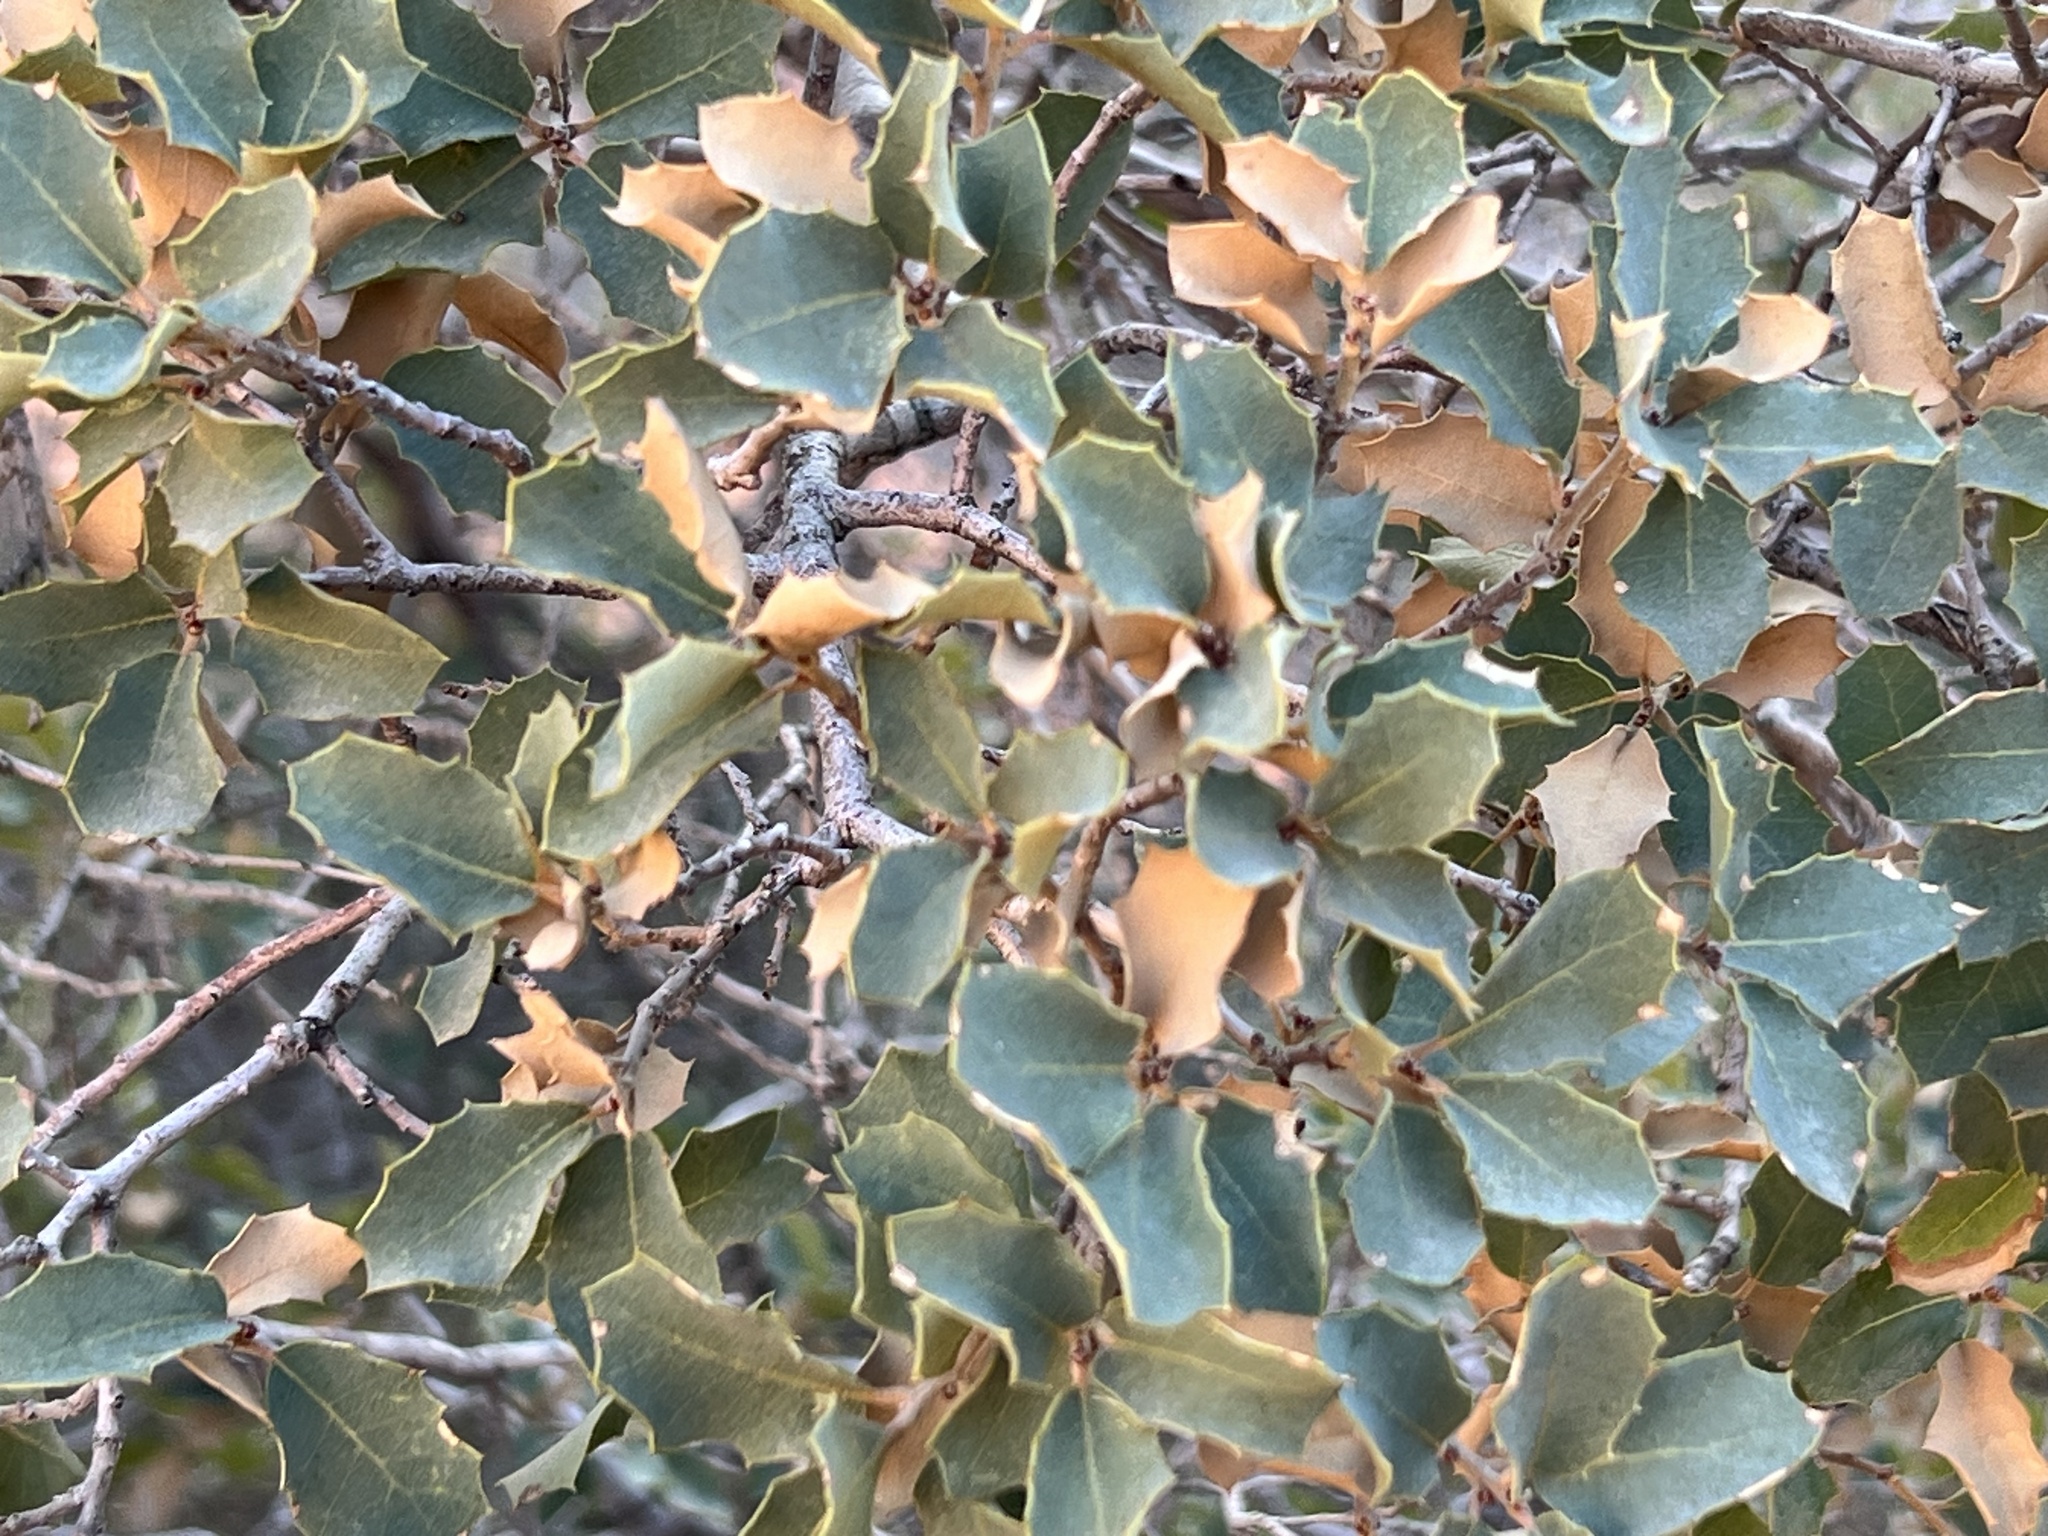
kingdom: Plantae
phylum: Tracheophyta
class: Magnoliopsida
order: Fagales
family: Fagaceae
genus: Quercus
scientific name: Quercus turbinella
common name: Sonoran scrub oak
